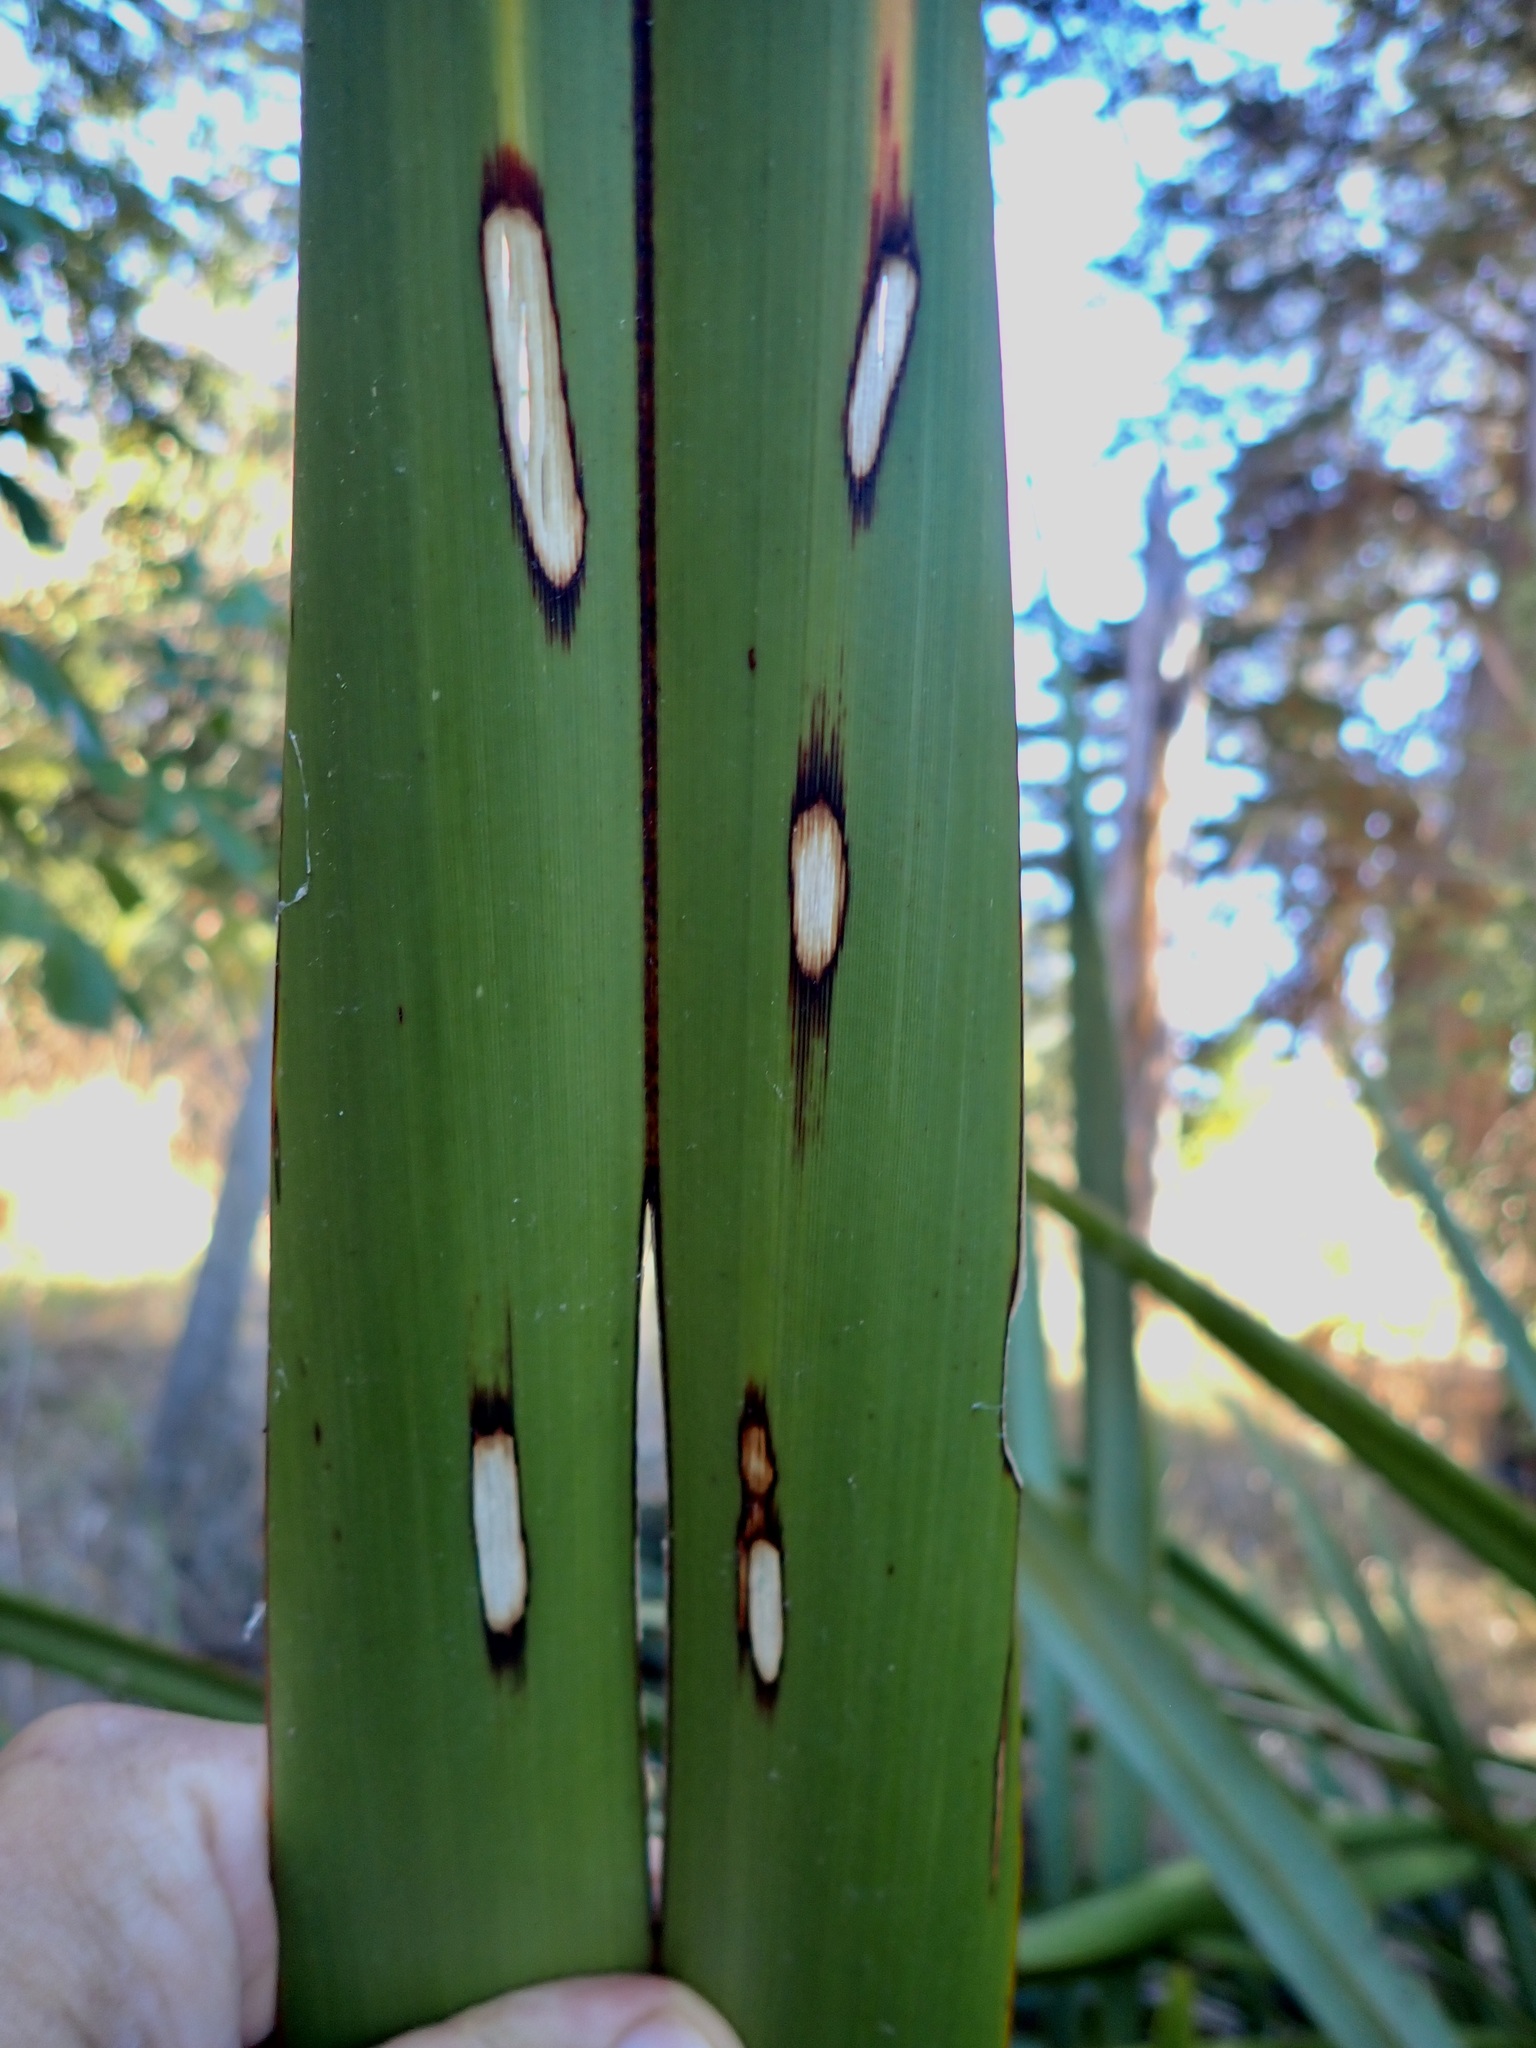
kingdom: Animalia
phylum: Arthropoda
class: Insecta
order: Lepidoptera
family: Geometridae
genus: Orthoclydon
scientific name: Orthoclydon praefectata
